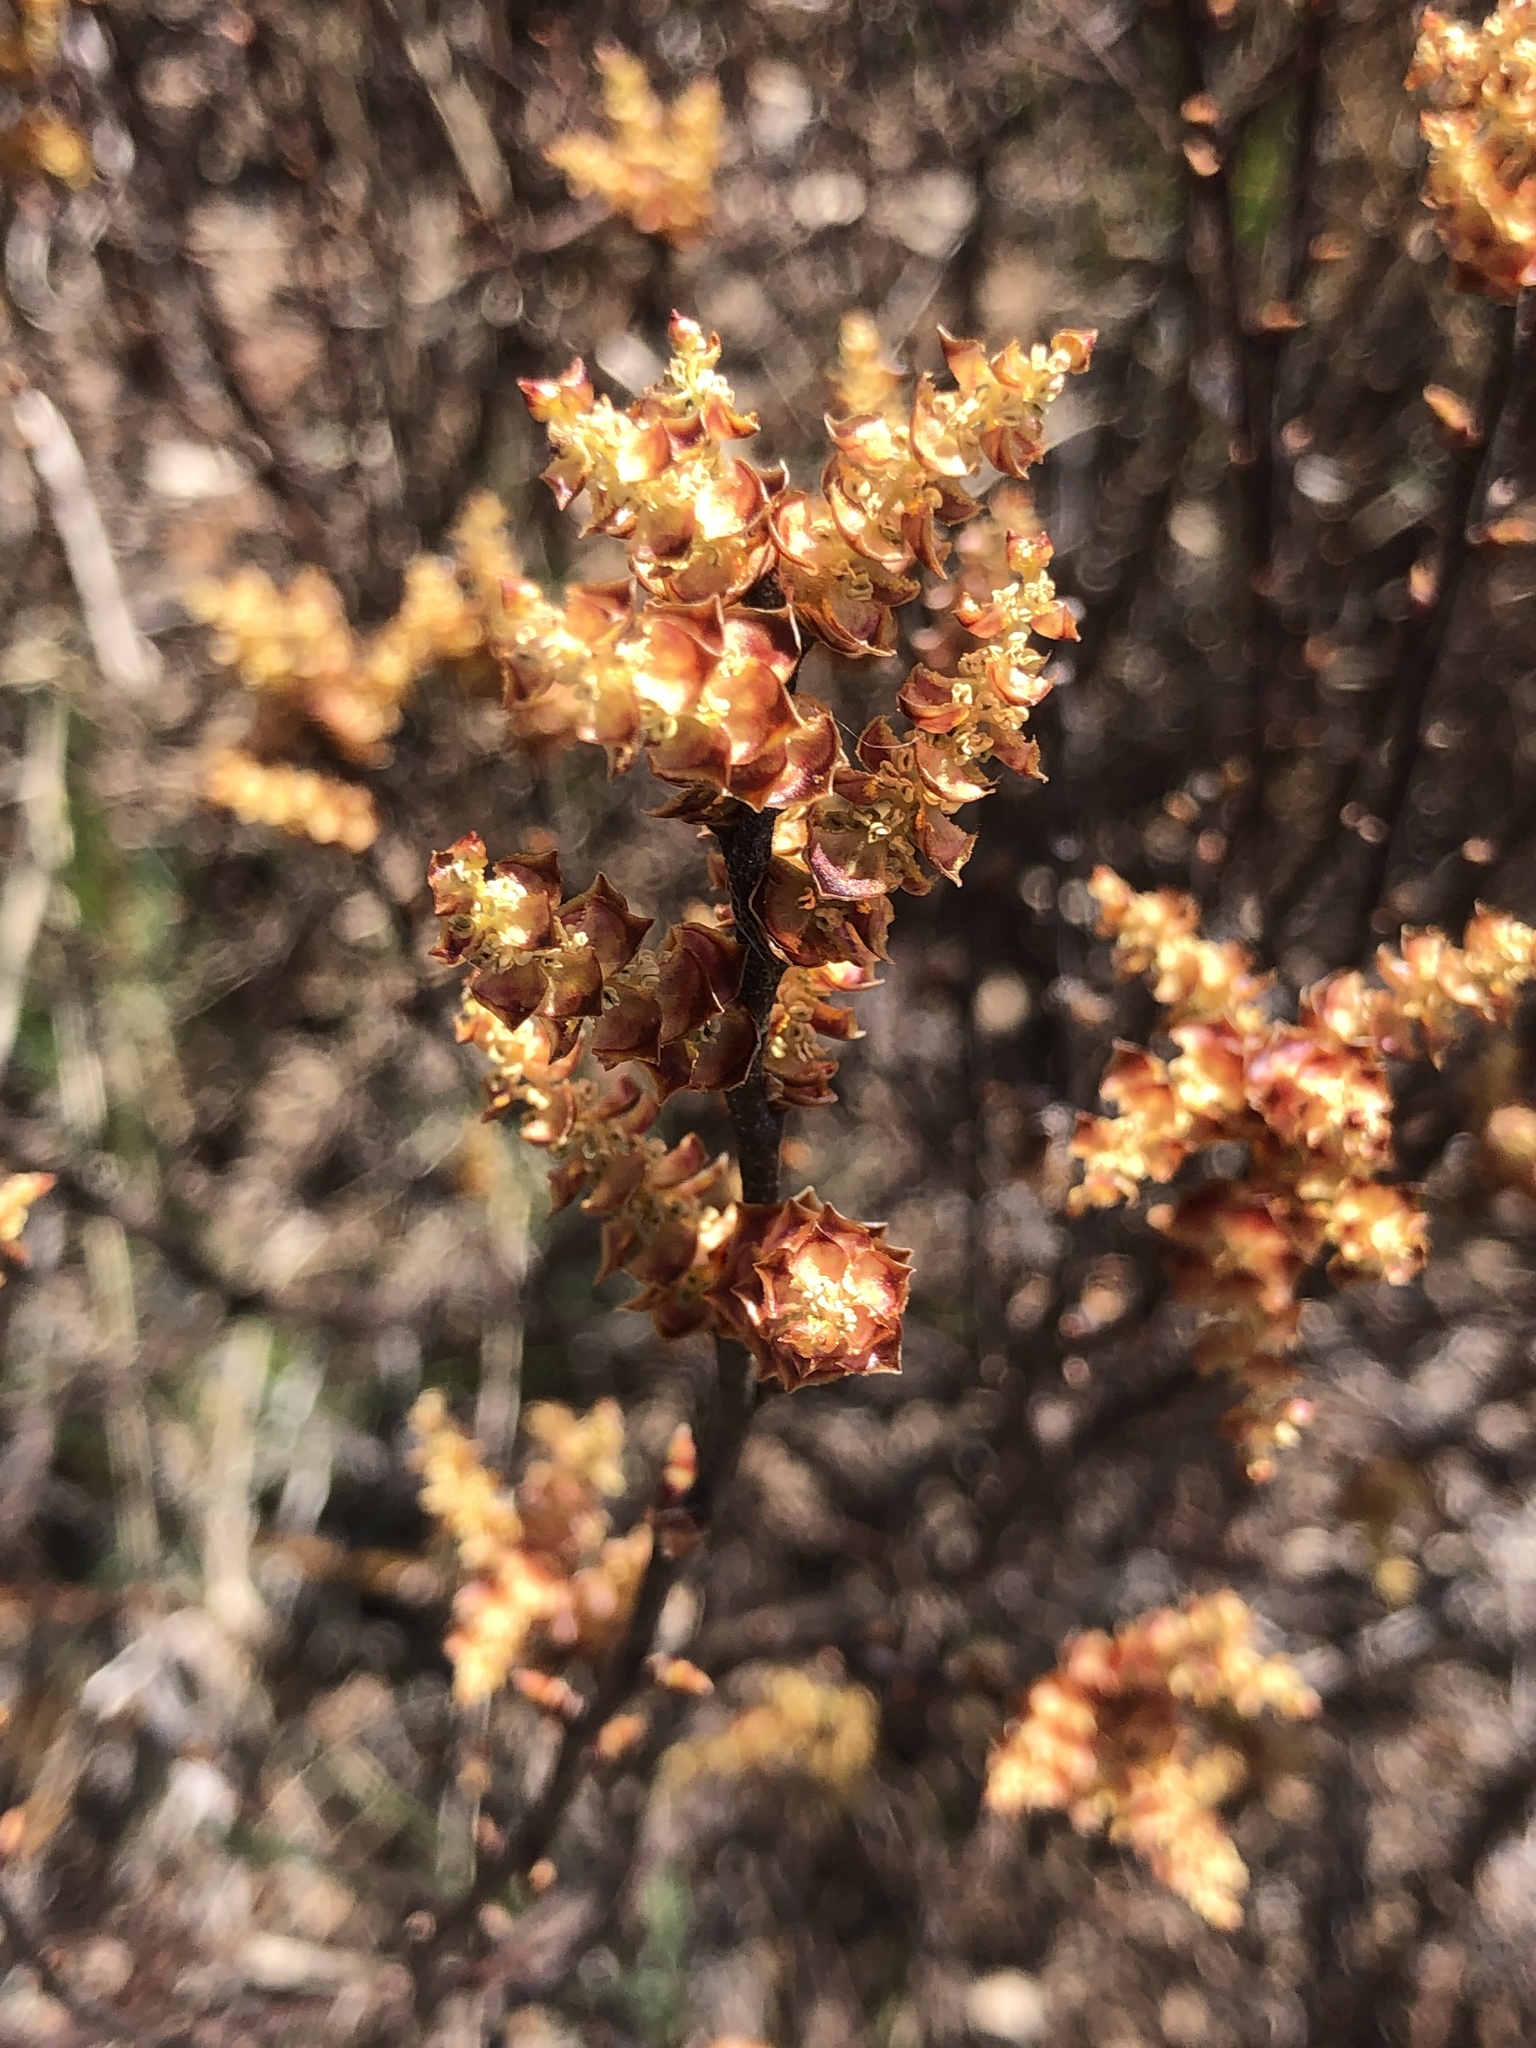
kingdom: Plantae
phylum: Tracheophyta
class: Magnoliopsida
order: Fagales
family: Myricaceae
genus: Myrica
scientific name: Myrica gale
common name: Sweet gale
